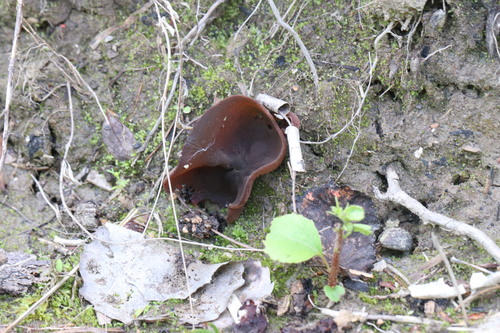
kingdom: Fungi
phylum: Ascomycota
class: Pezizomycetes
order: Pezizales
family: Pezizaceae
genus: Phylloscypha
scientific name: Phylloscypha
